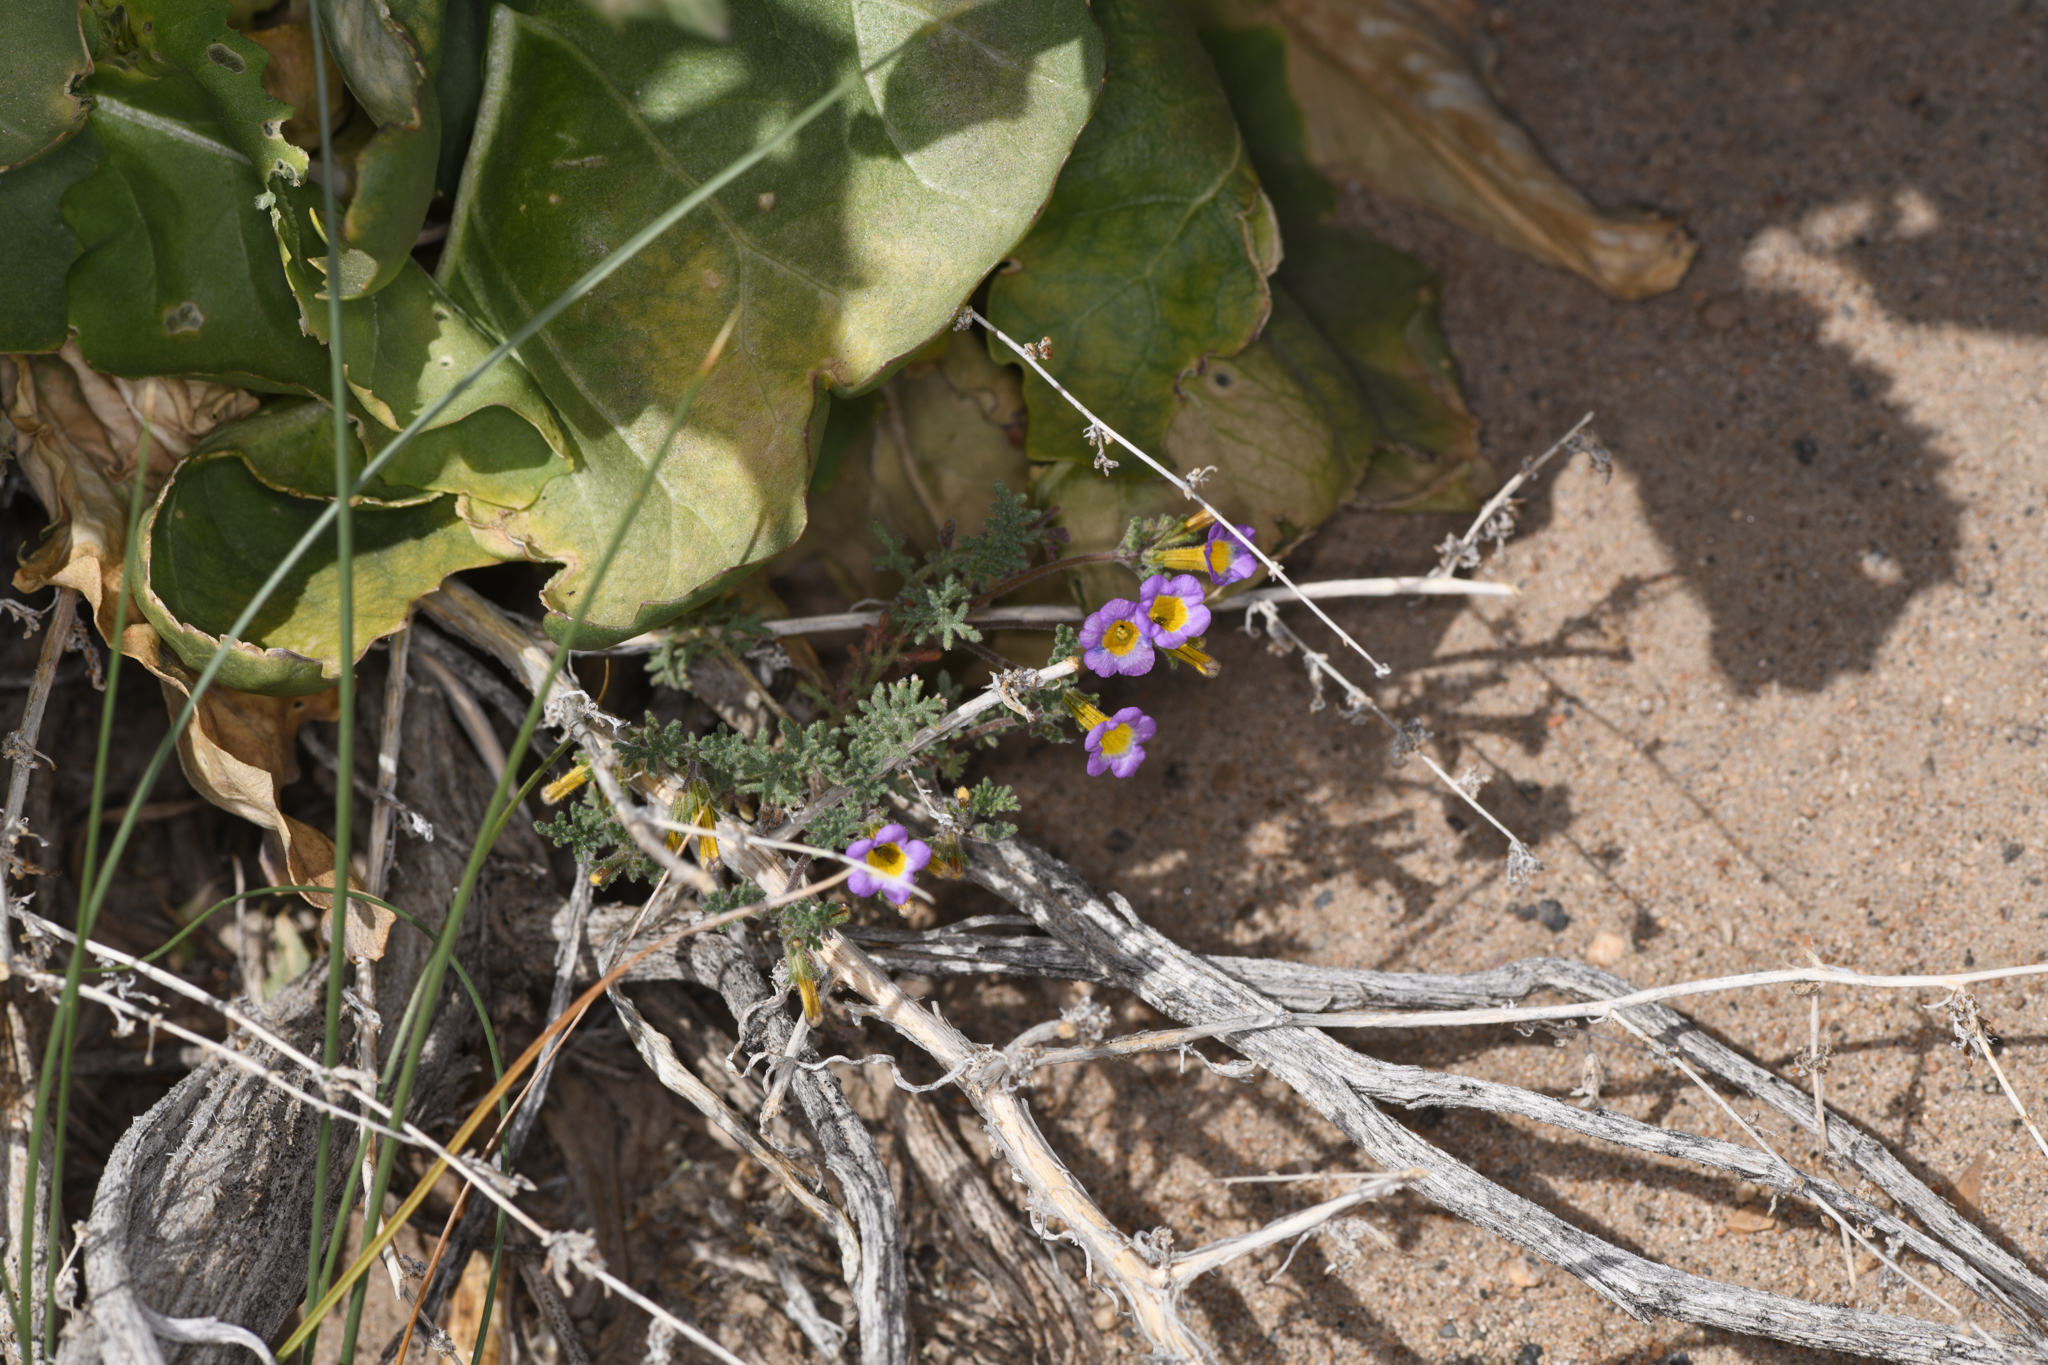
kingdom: Plantae
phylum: Tracheophyta
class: Magnoliopsida
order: Boraginales
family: Hydrophyllaceae
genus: Phacelia
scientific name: Phacelia bicolor
